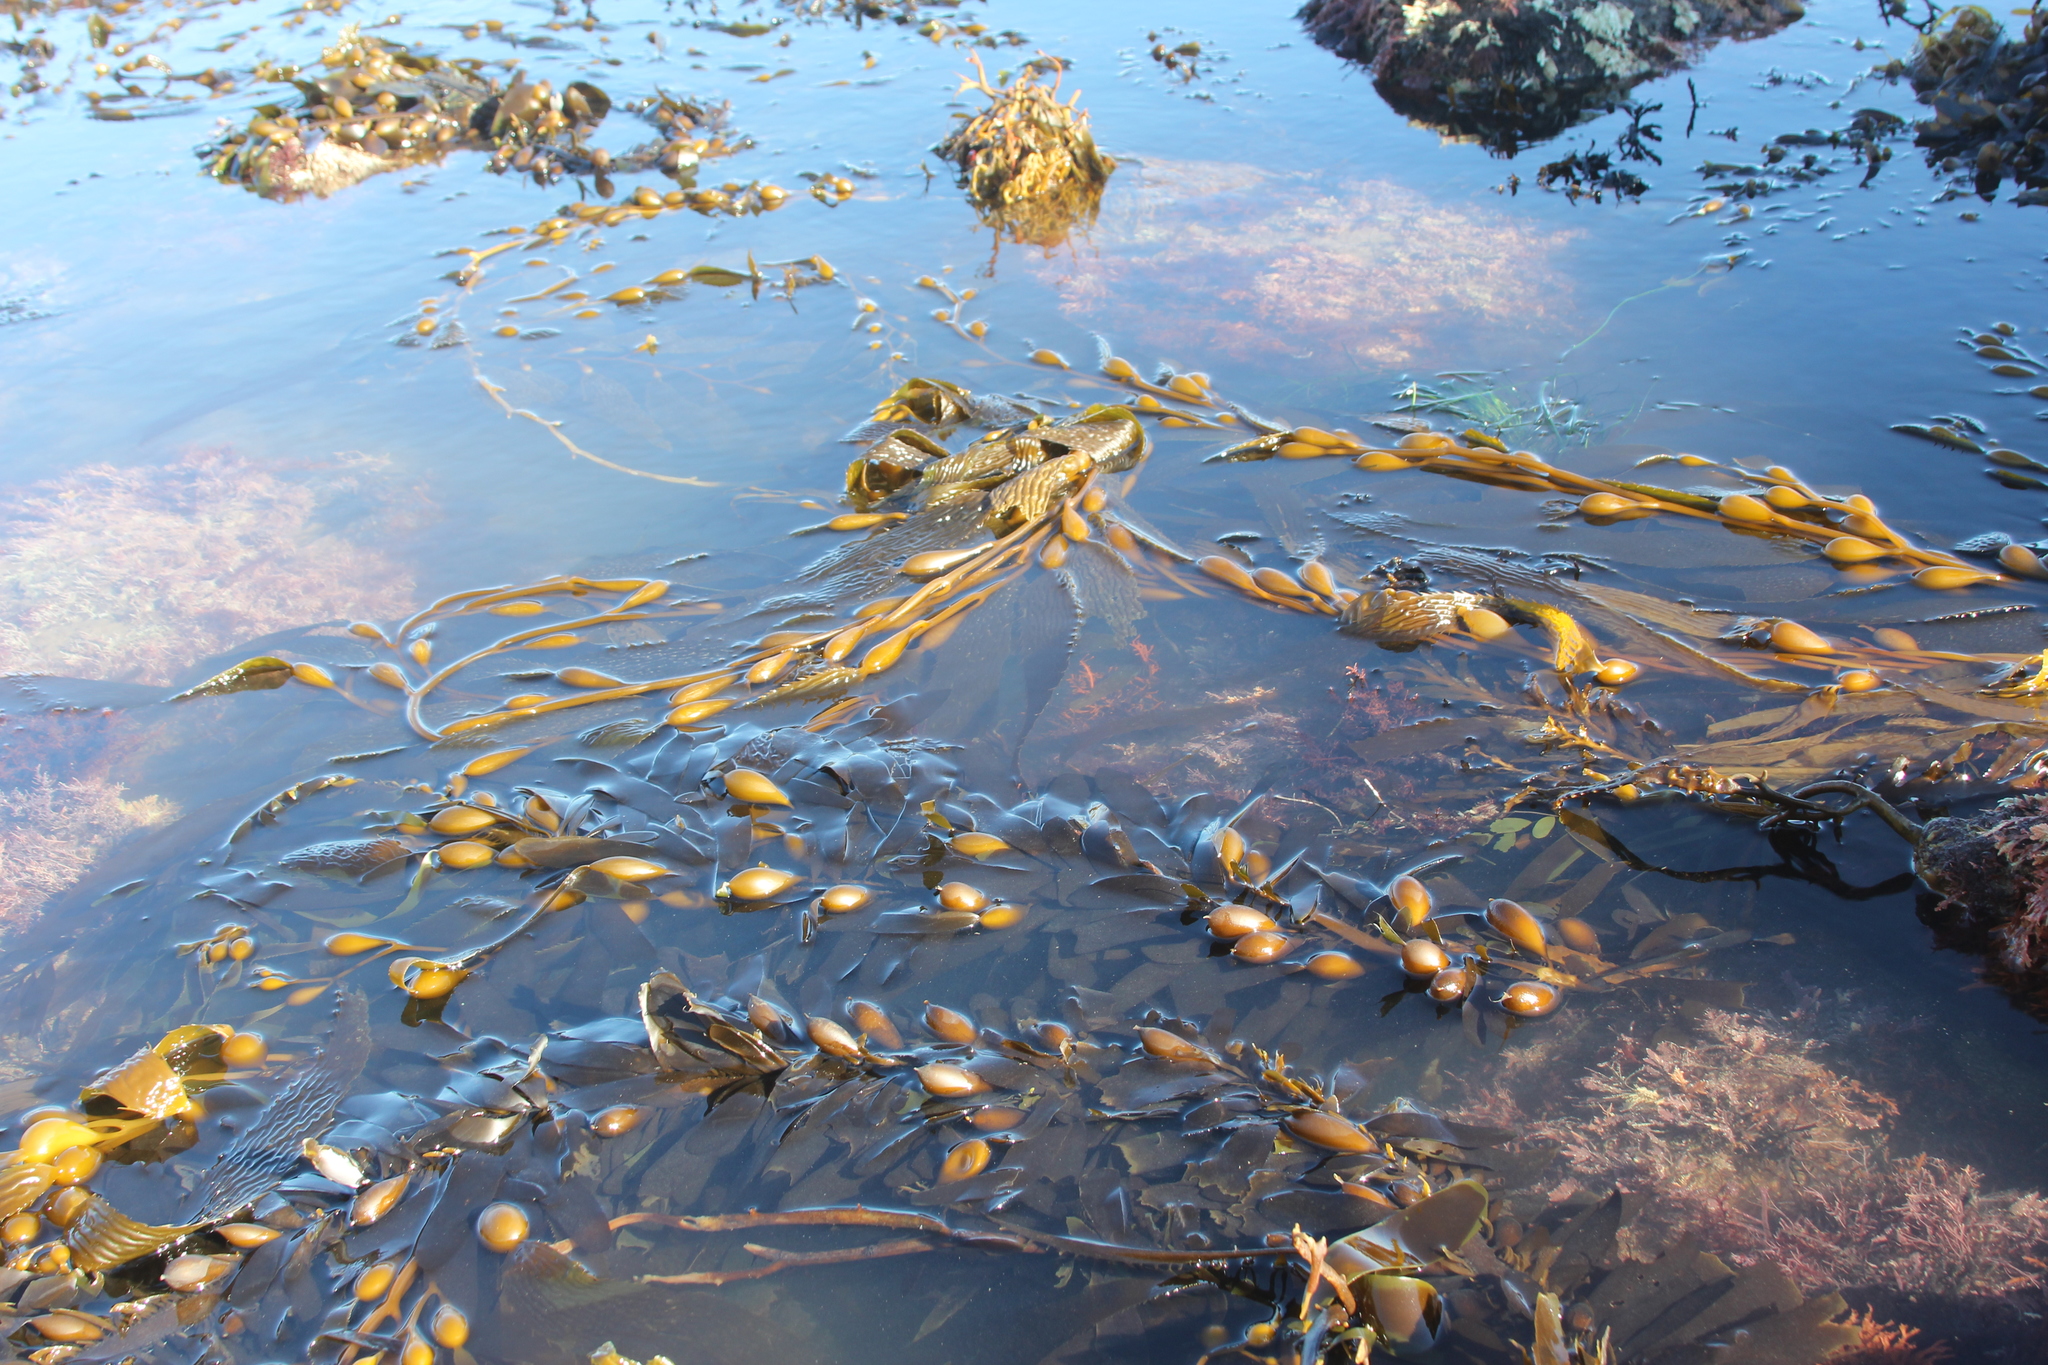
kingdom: Chromista
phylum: Ochrophyta
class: Phaeophyceae
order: Laminariales
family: Laminariaceae
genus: Macrocystis
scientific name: Macrocystis pyrifera
